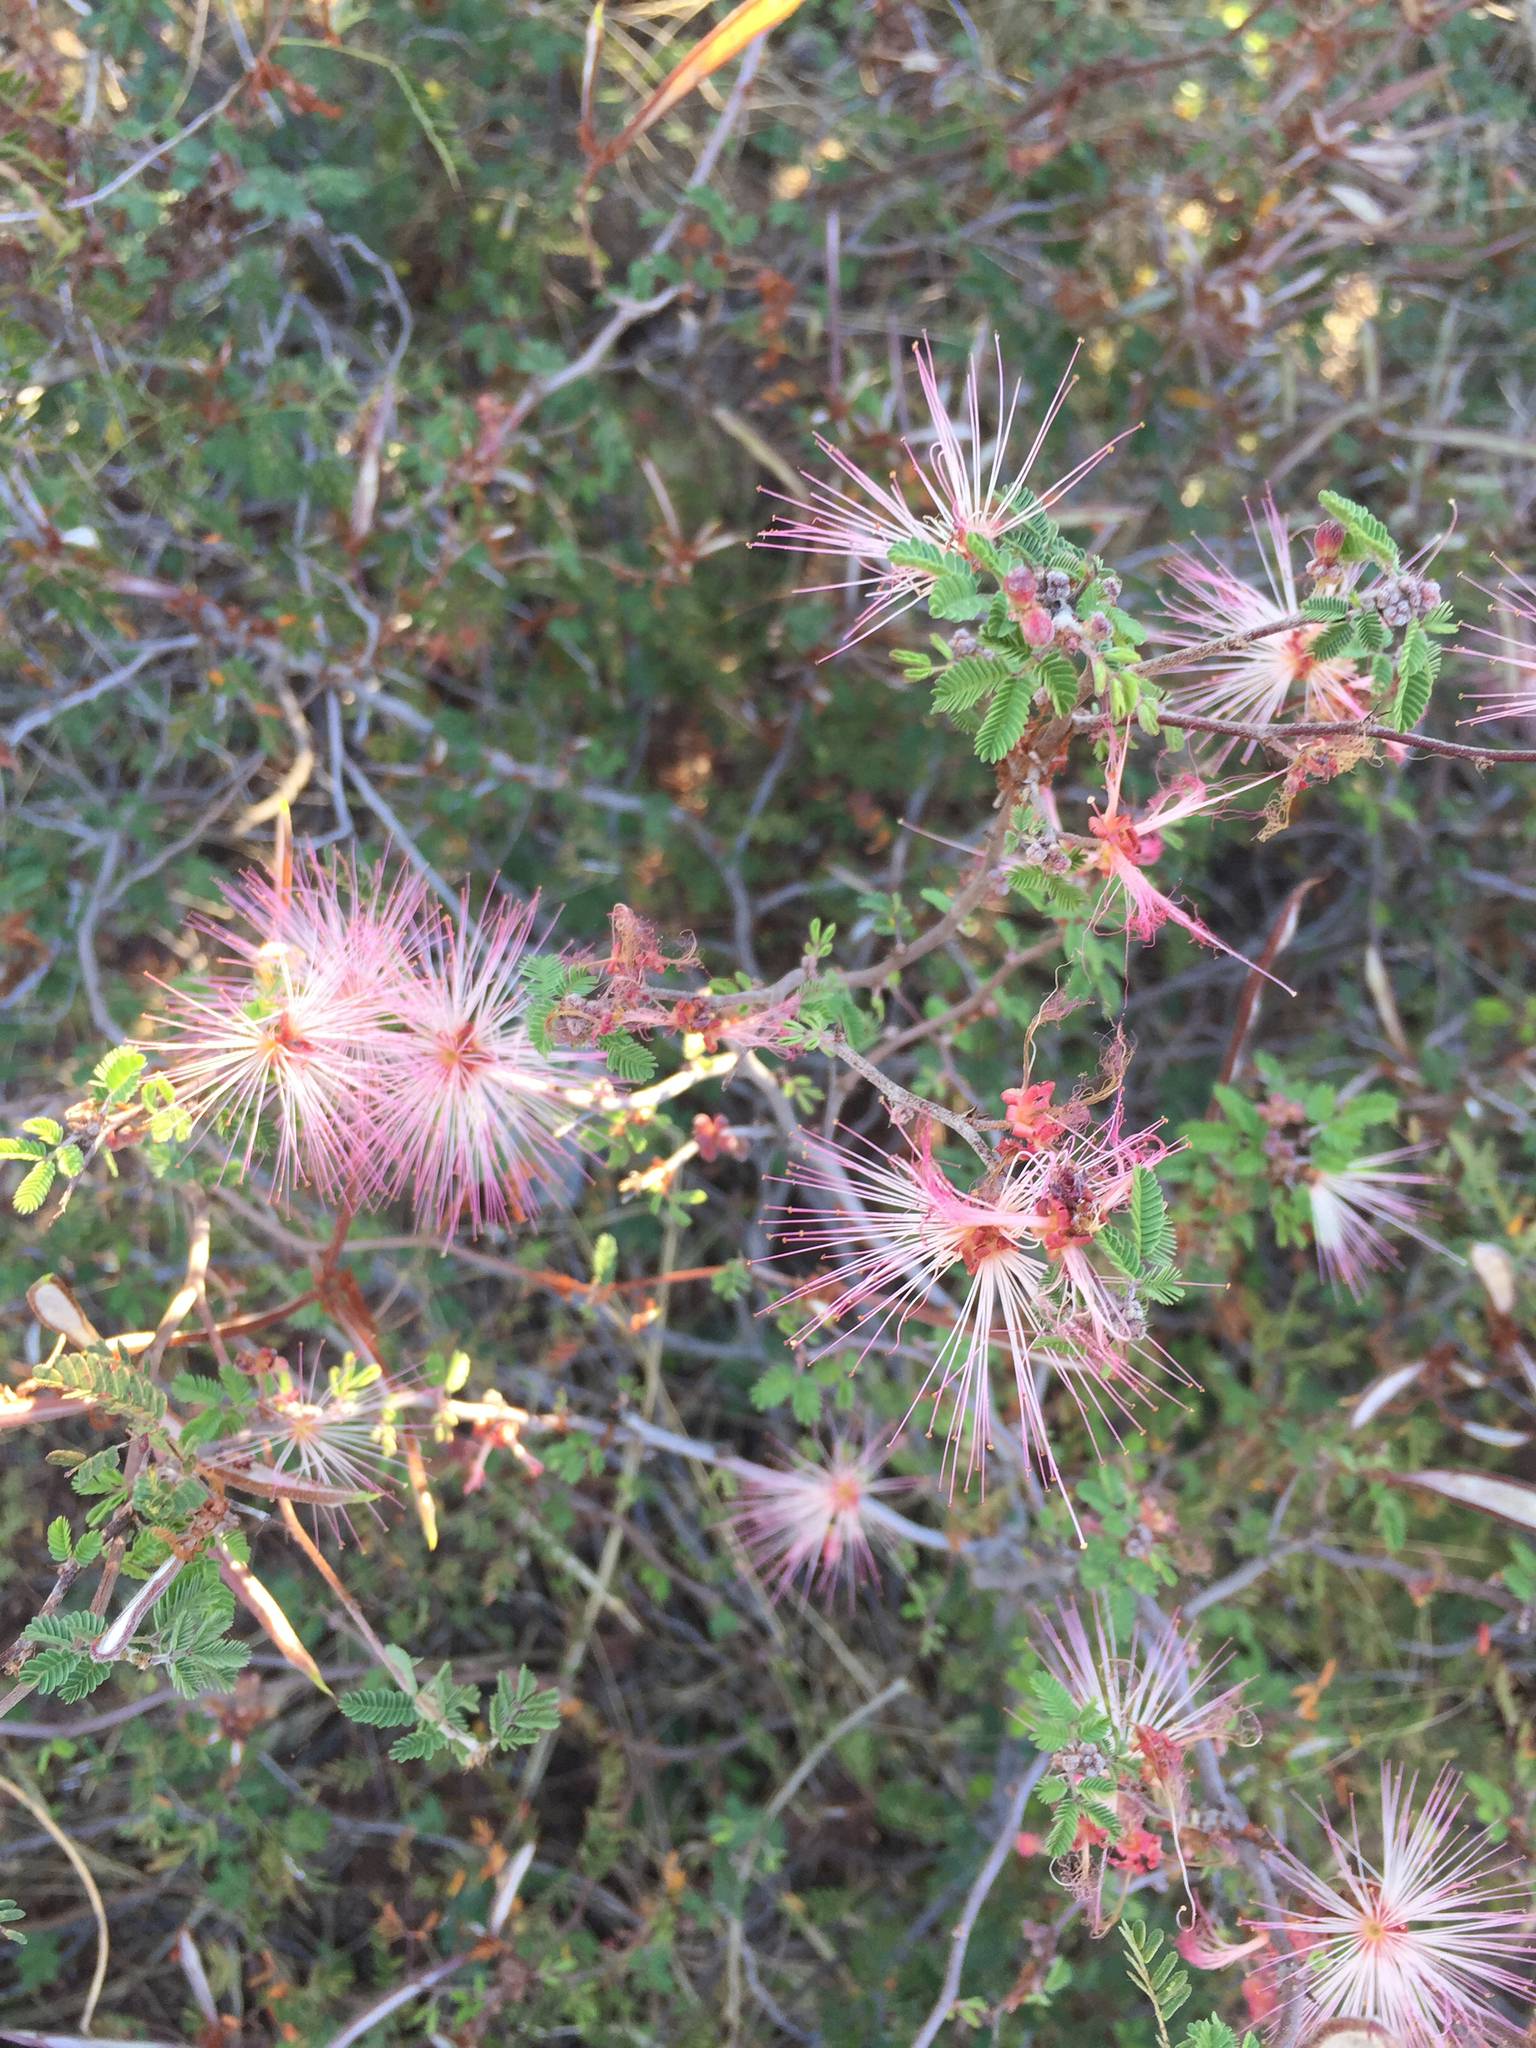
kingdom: Plantae
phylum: Tracheophyta
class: Magnoliopsida
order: Fabales
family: Fabaceae
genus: Calliandra
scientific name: Calliandra eriophylla
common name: Fairy-duster
